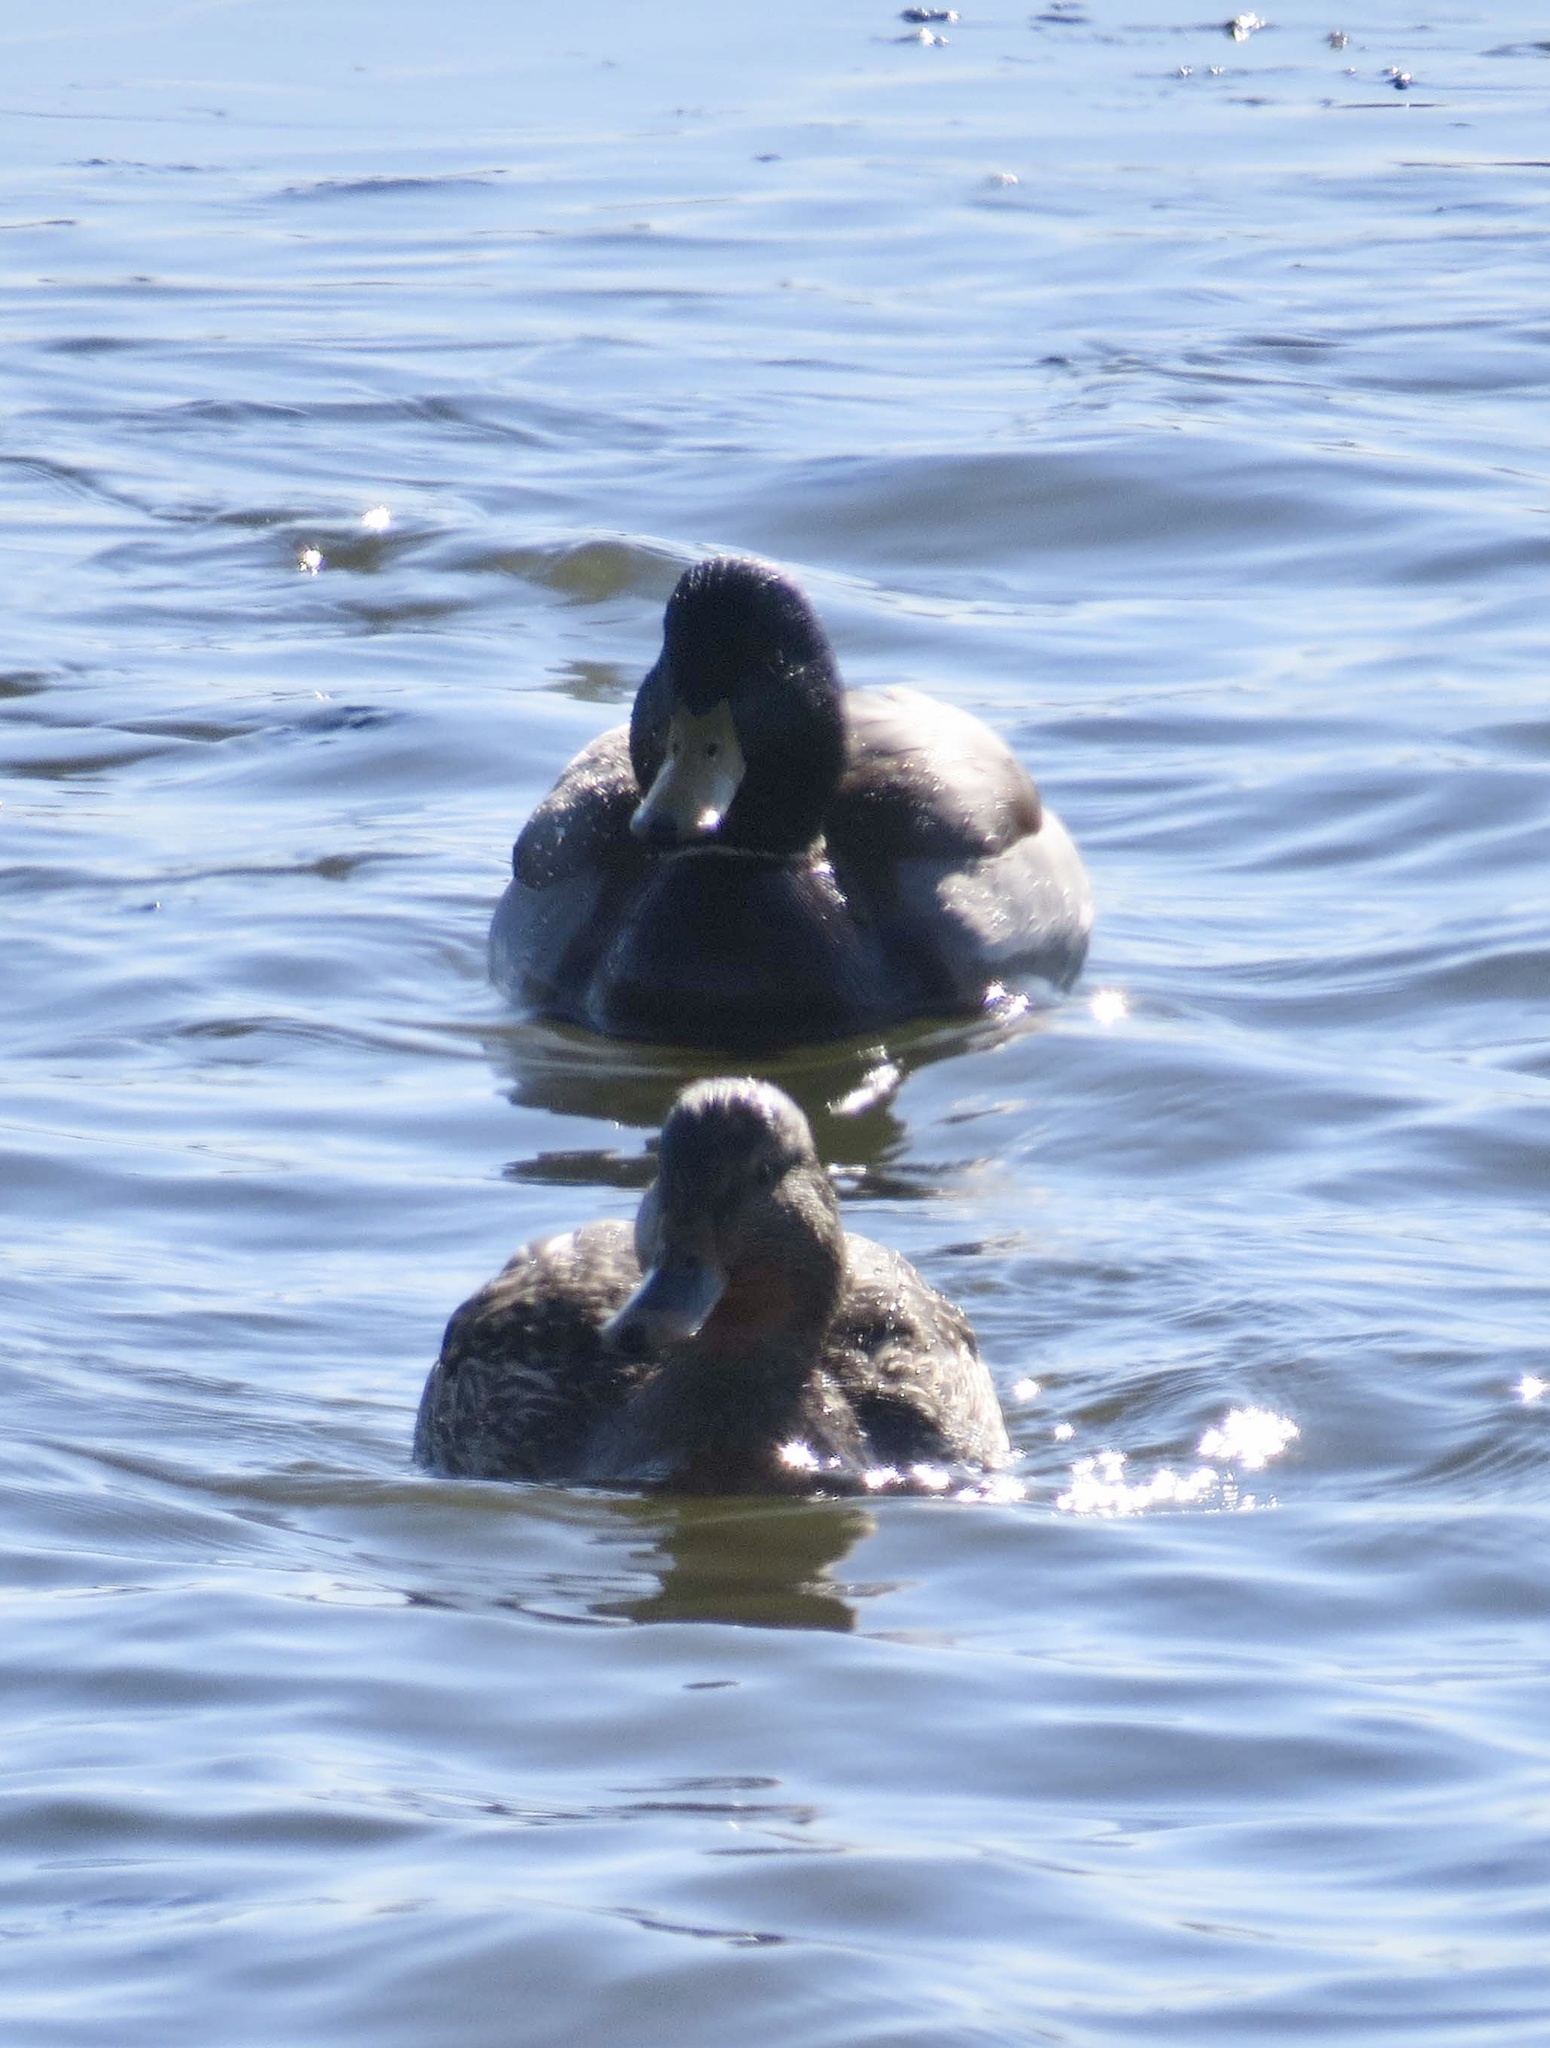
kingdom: Animalia
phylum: Chordata
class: Aves
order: Anseriformes
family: Anatidae
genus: Anas
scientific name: Anas platyrhynchos
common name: Mallard
